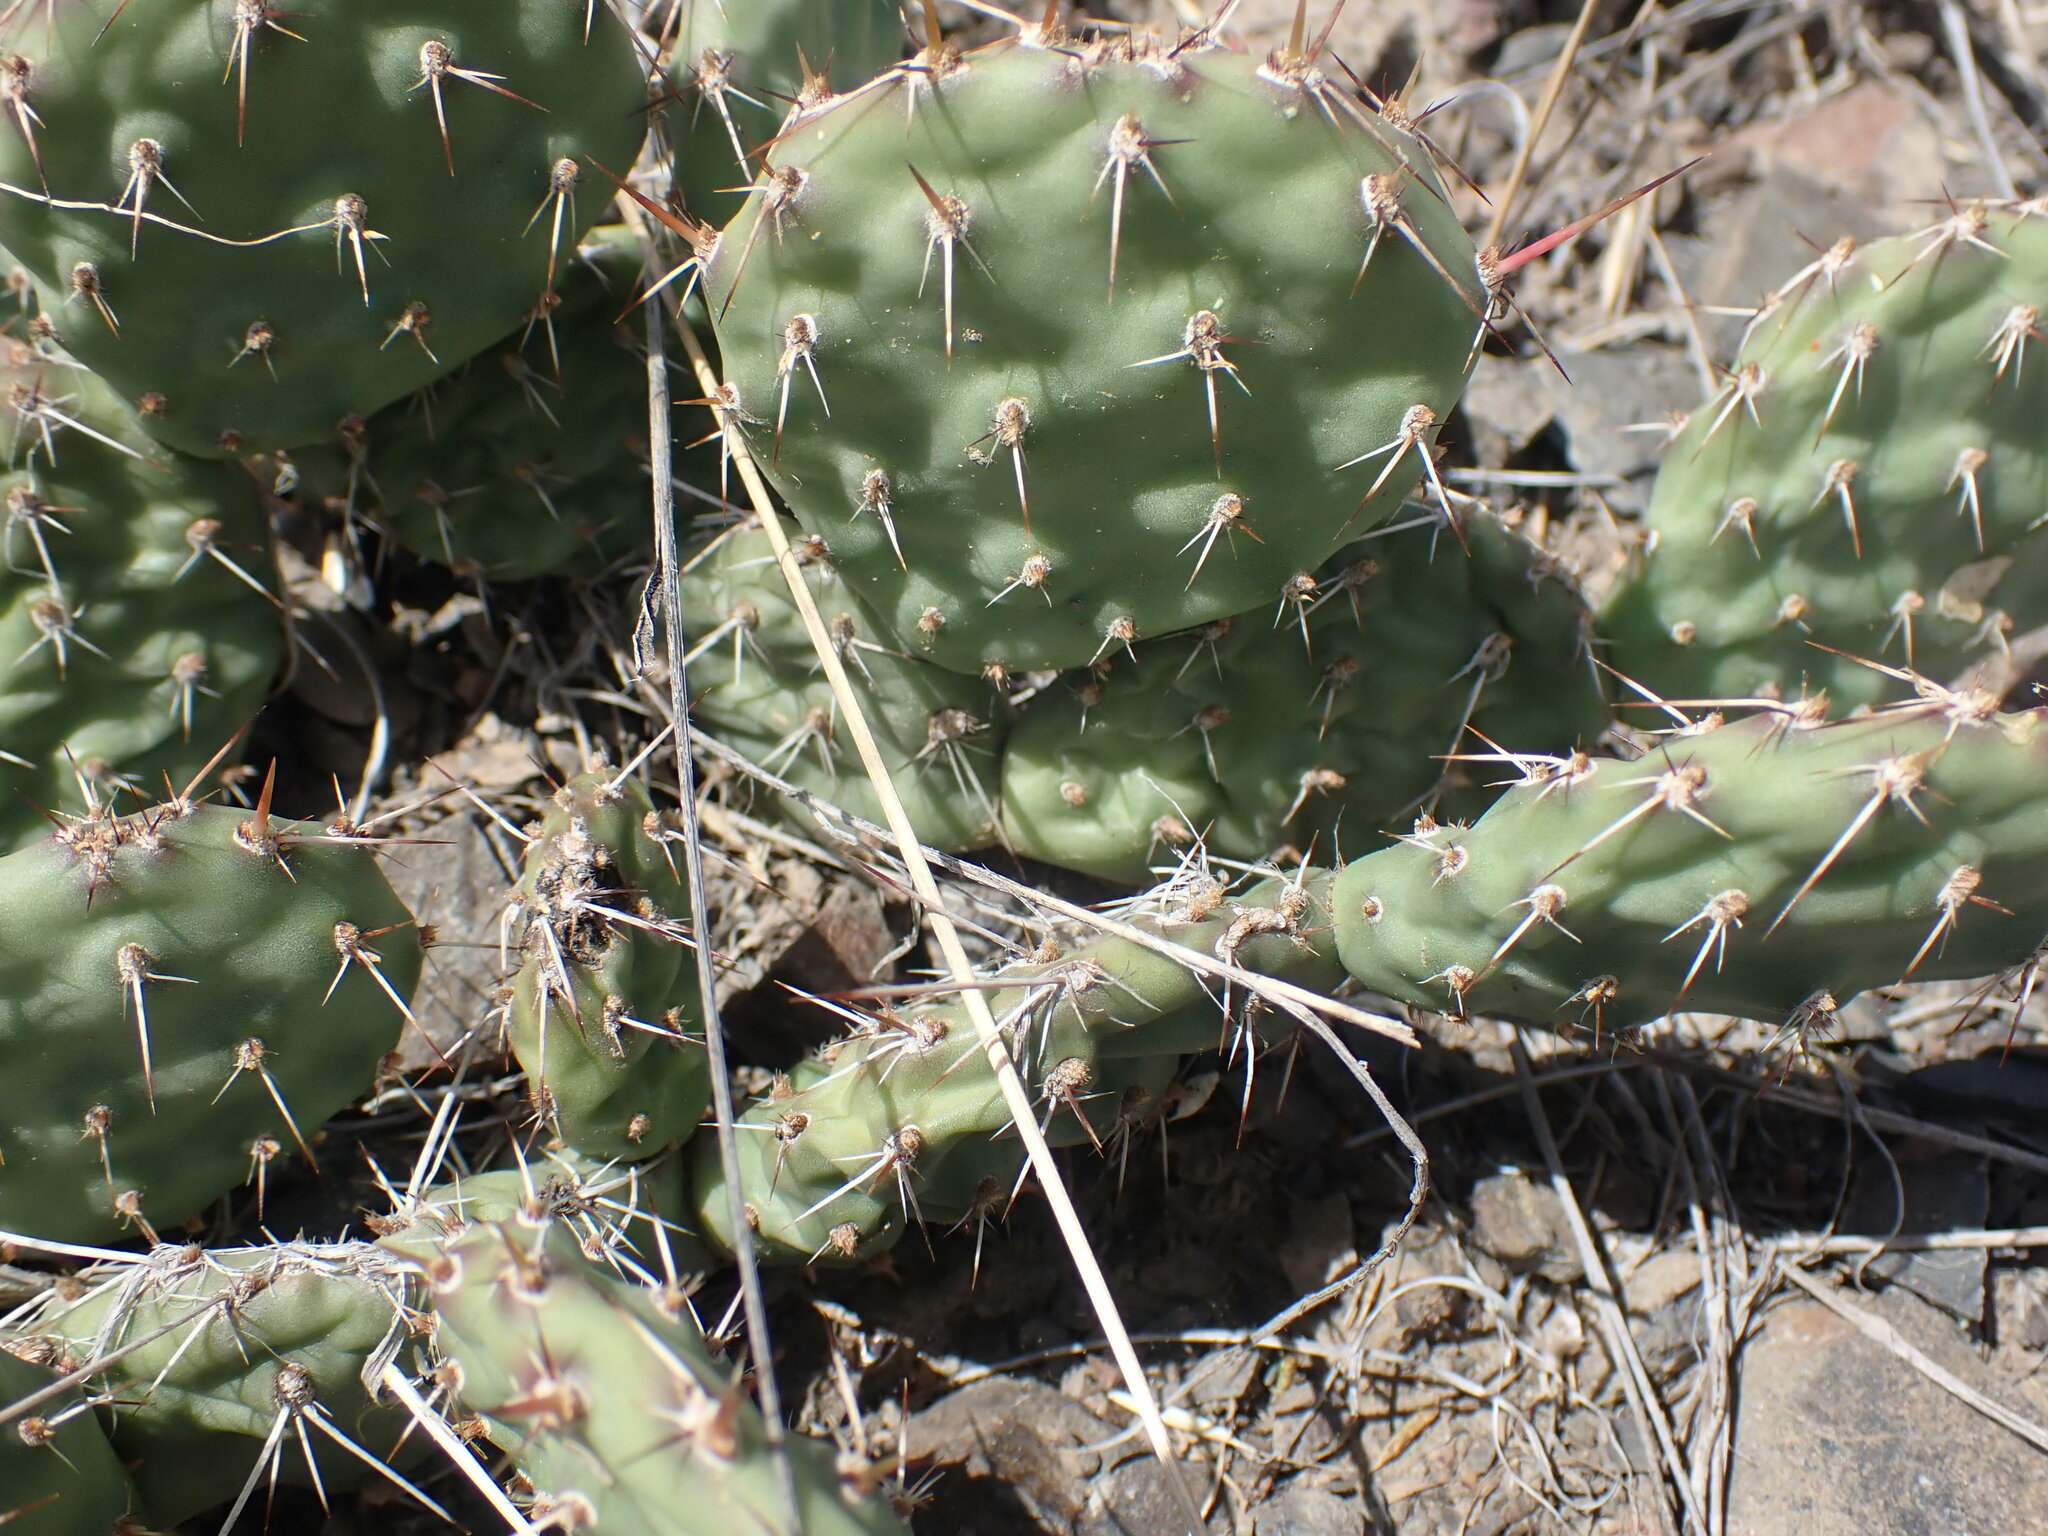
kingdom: Plantae
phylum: Tracheophyta
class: Magnoliopsida
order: Caryophyllales
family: Cactaceae
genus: Opuntia
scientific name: Opuntia columbiana
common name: Columbia prickly-pear
